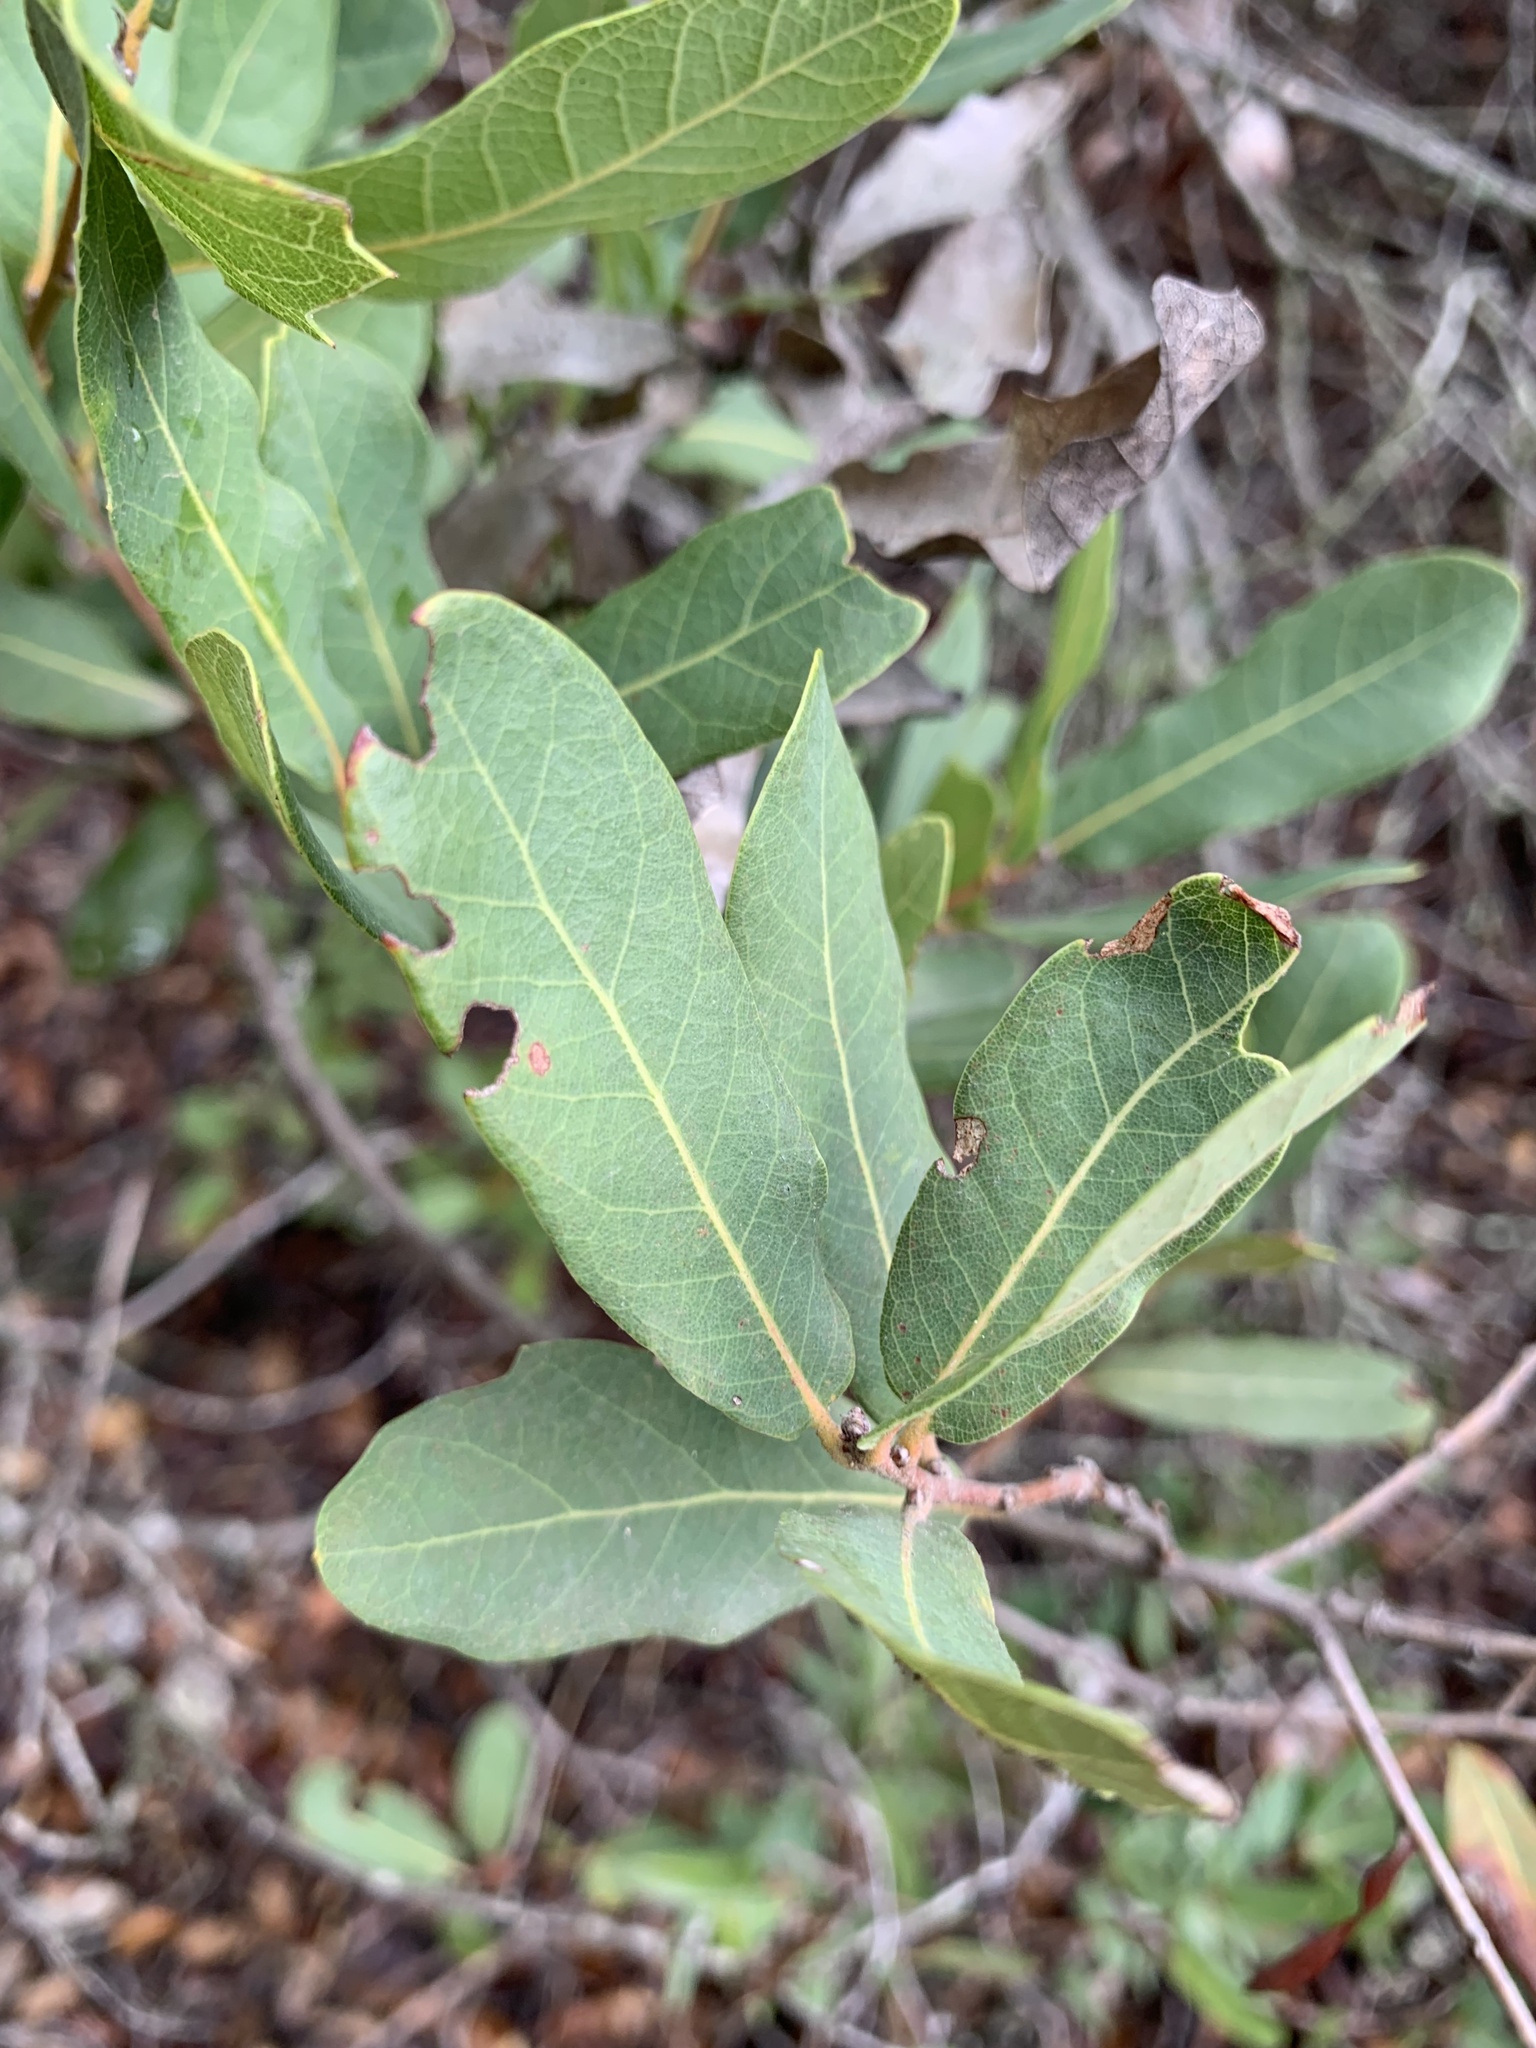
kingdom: Plantae
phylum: Tracheophyta
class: Magnoliopsida
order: Fagales
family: Fagaceae
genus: Quercus
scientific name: Quercus engelmannii
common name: Engelmann oak
